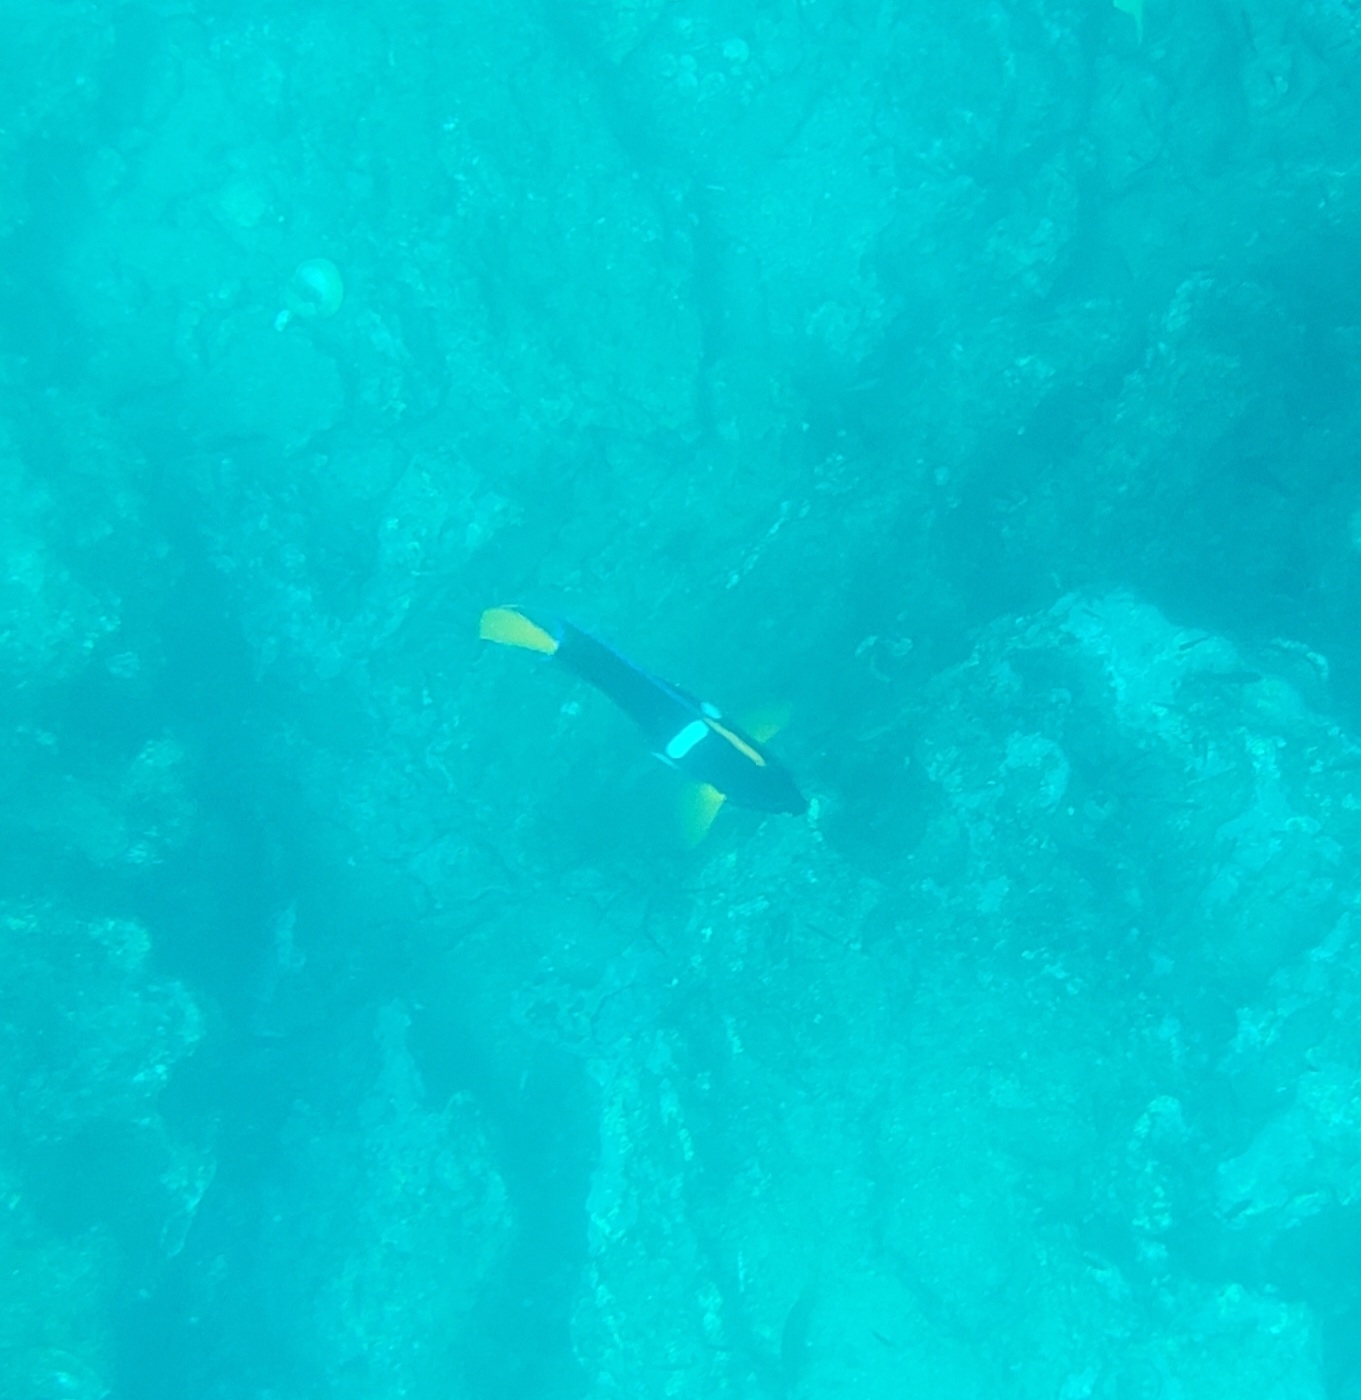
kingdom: Animalia
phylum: Chordata
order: Perciformes
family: Pomacanthidae
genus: Holacanthus
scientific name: Holacanthus passer
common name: King angelfish
